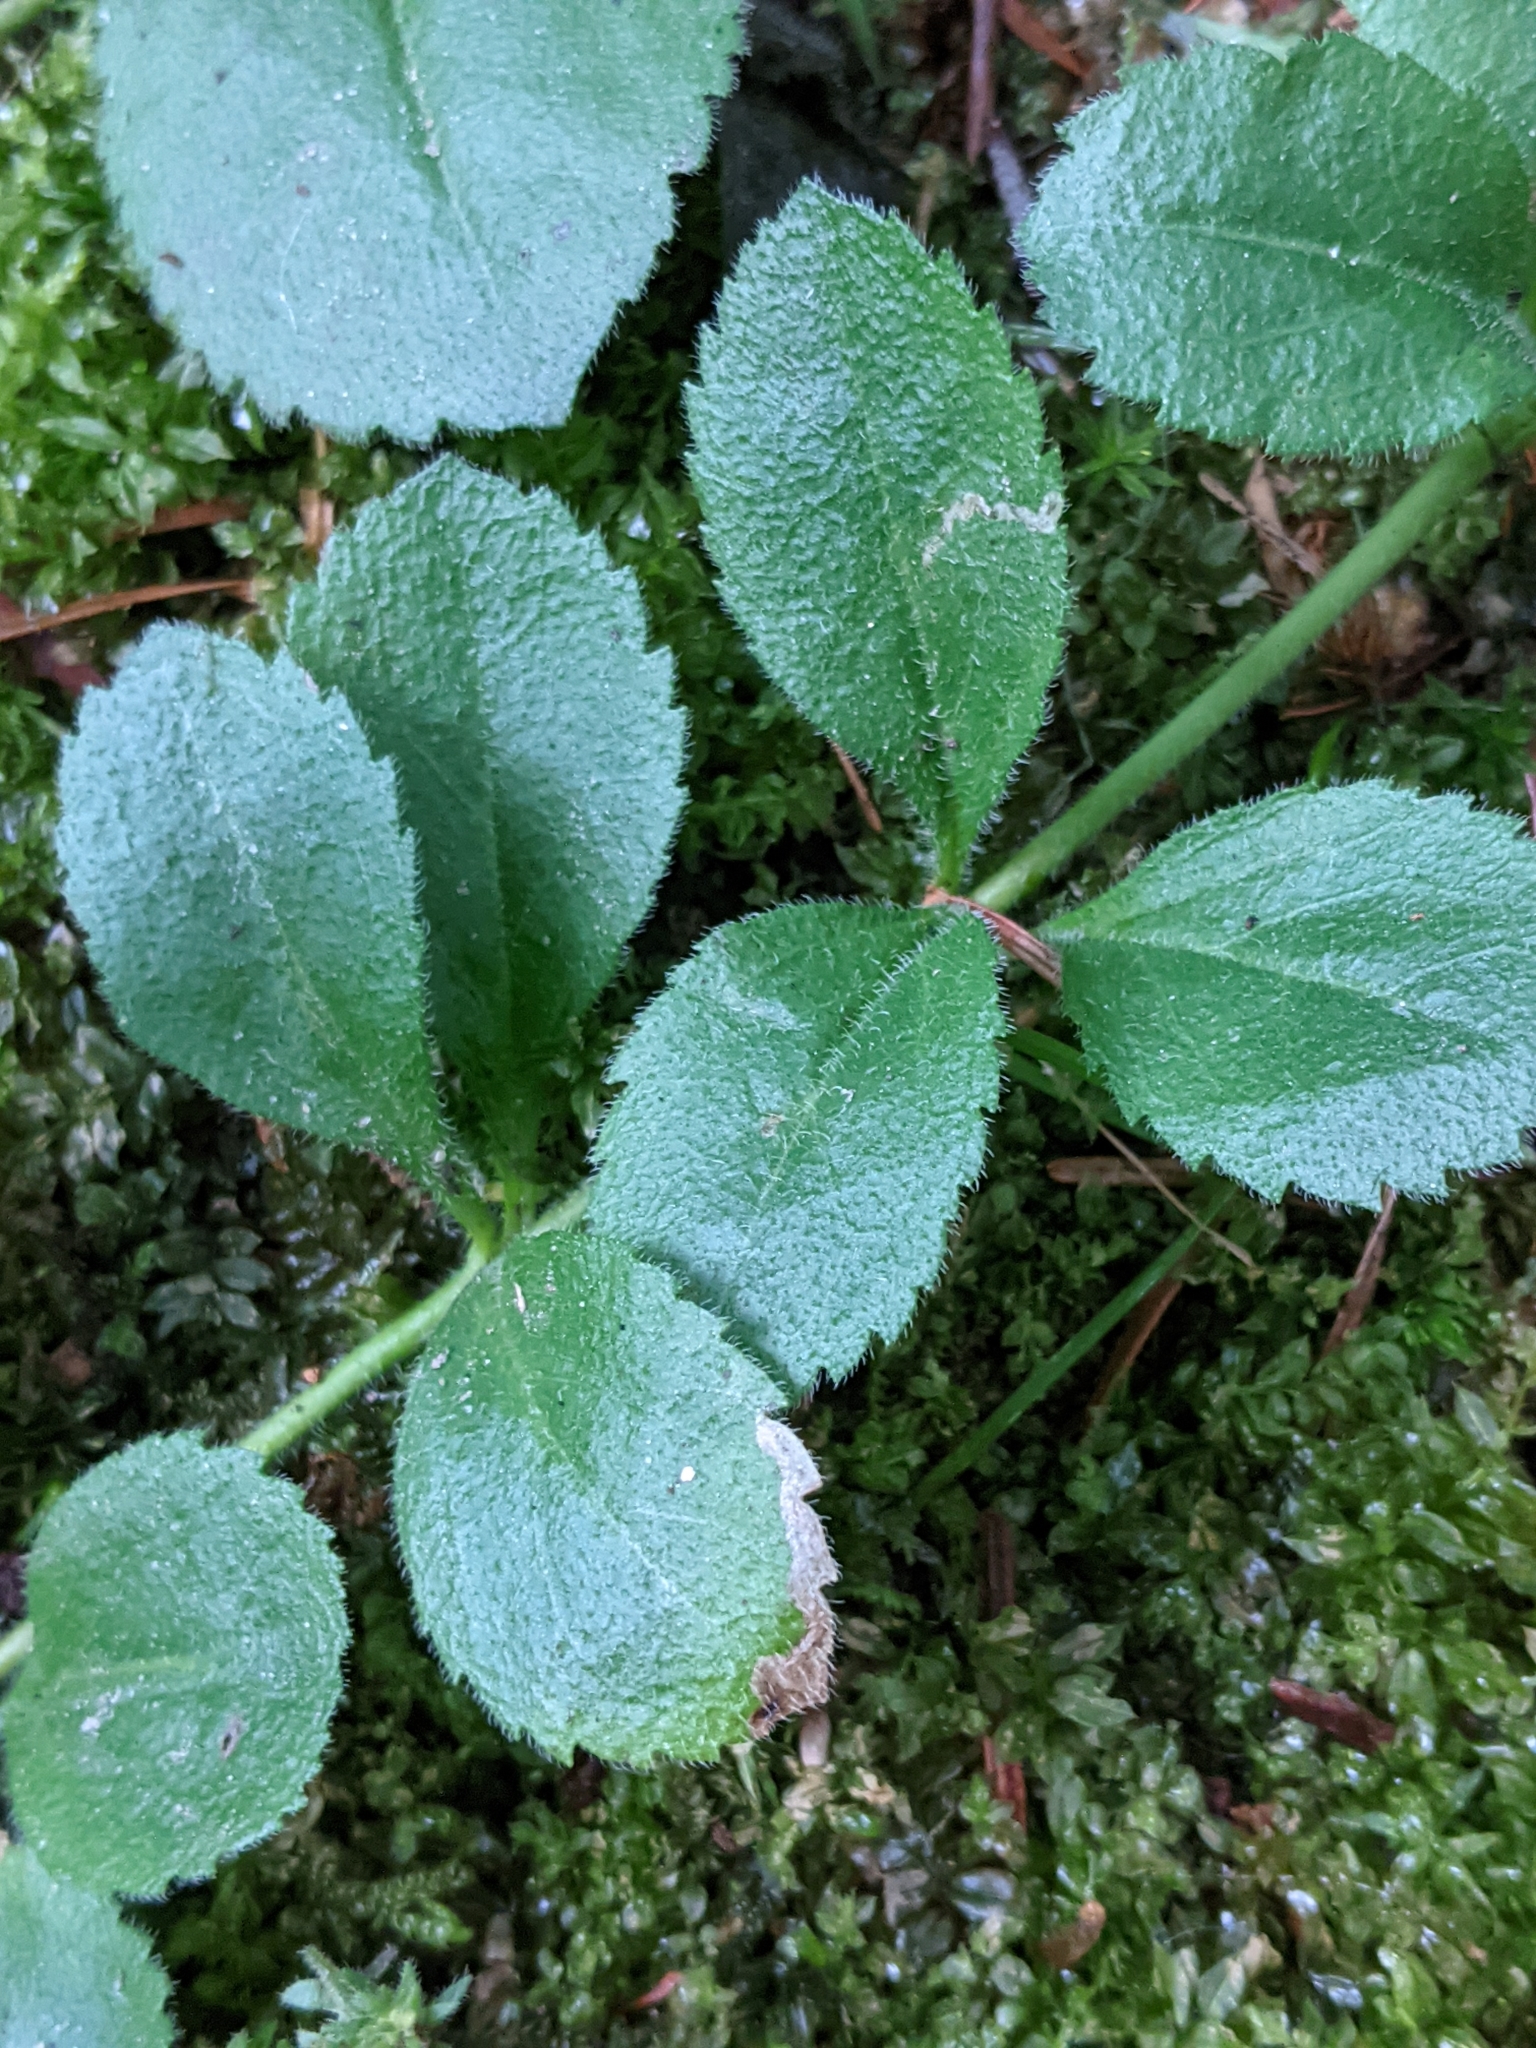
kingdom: Plantae
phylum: Tracheophyta
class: Magnoliopsida
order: Lamiales
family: Plantaginaceae
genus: Veronica
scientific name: Veronica officinalis
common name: Common speedwell
